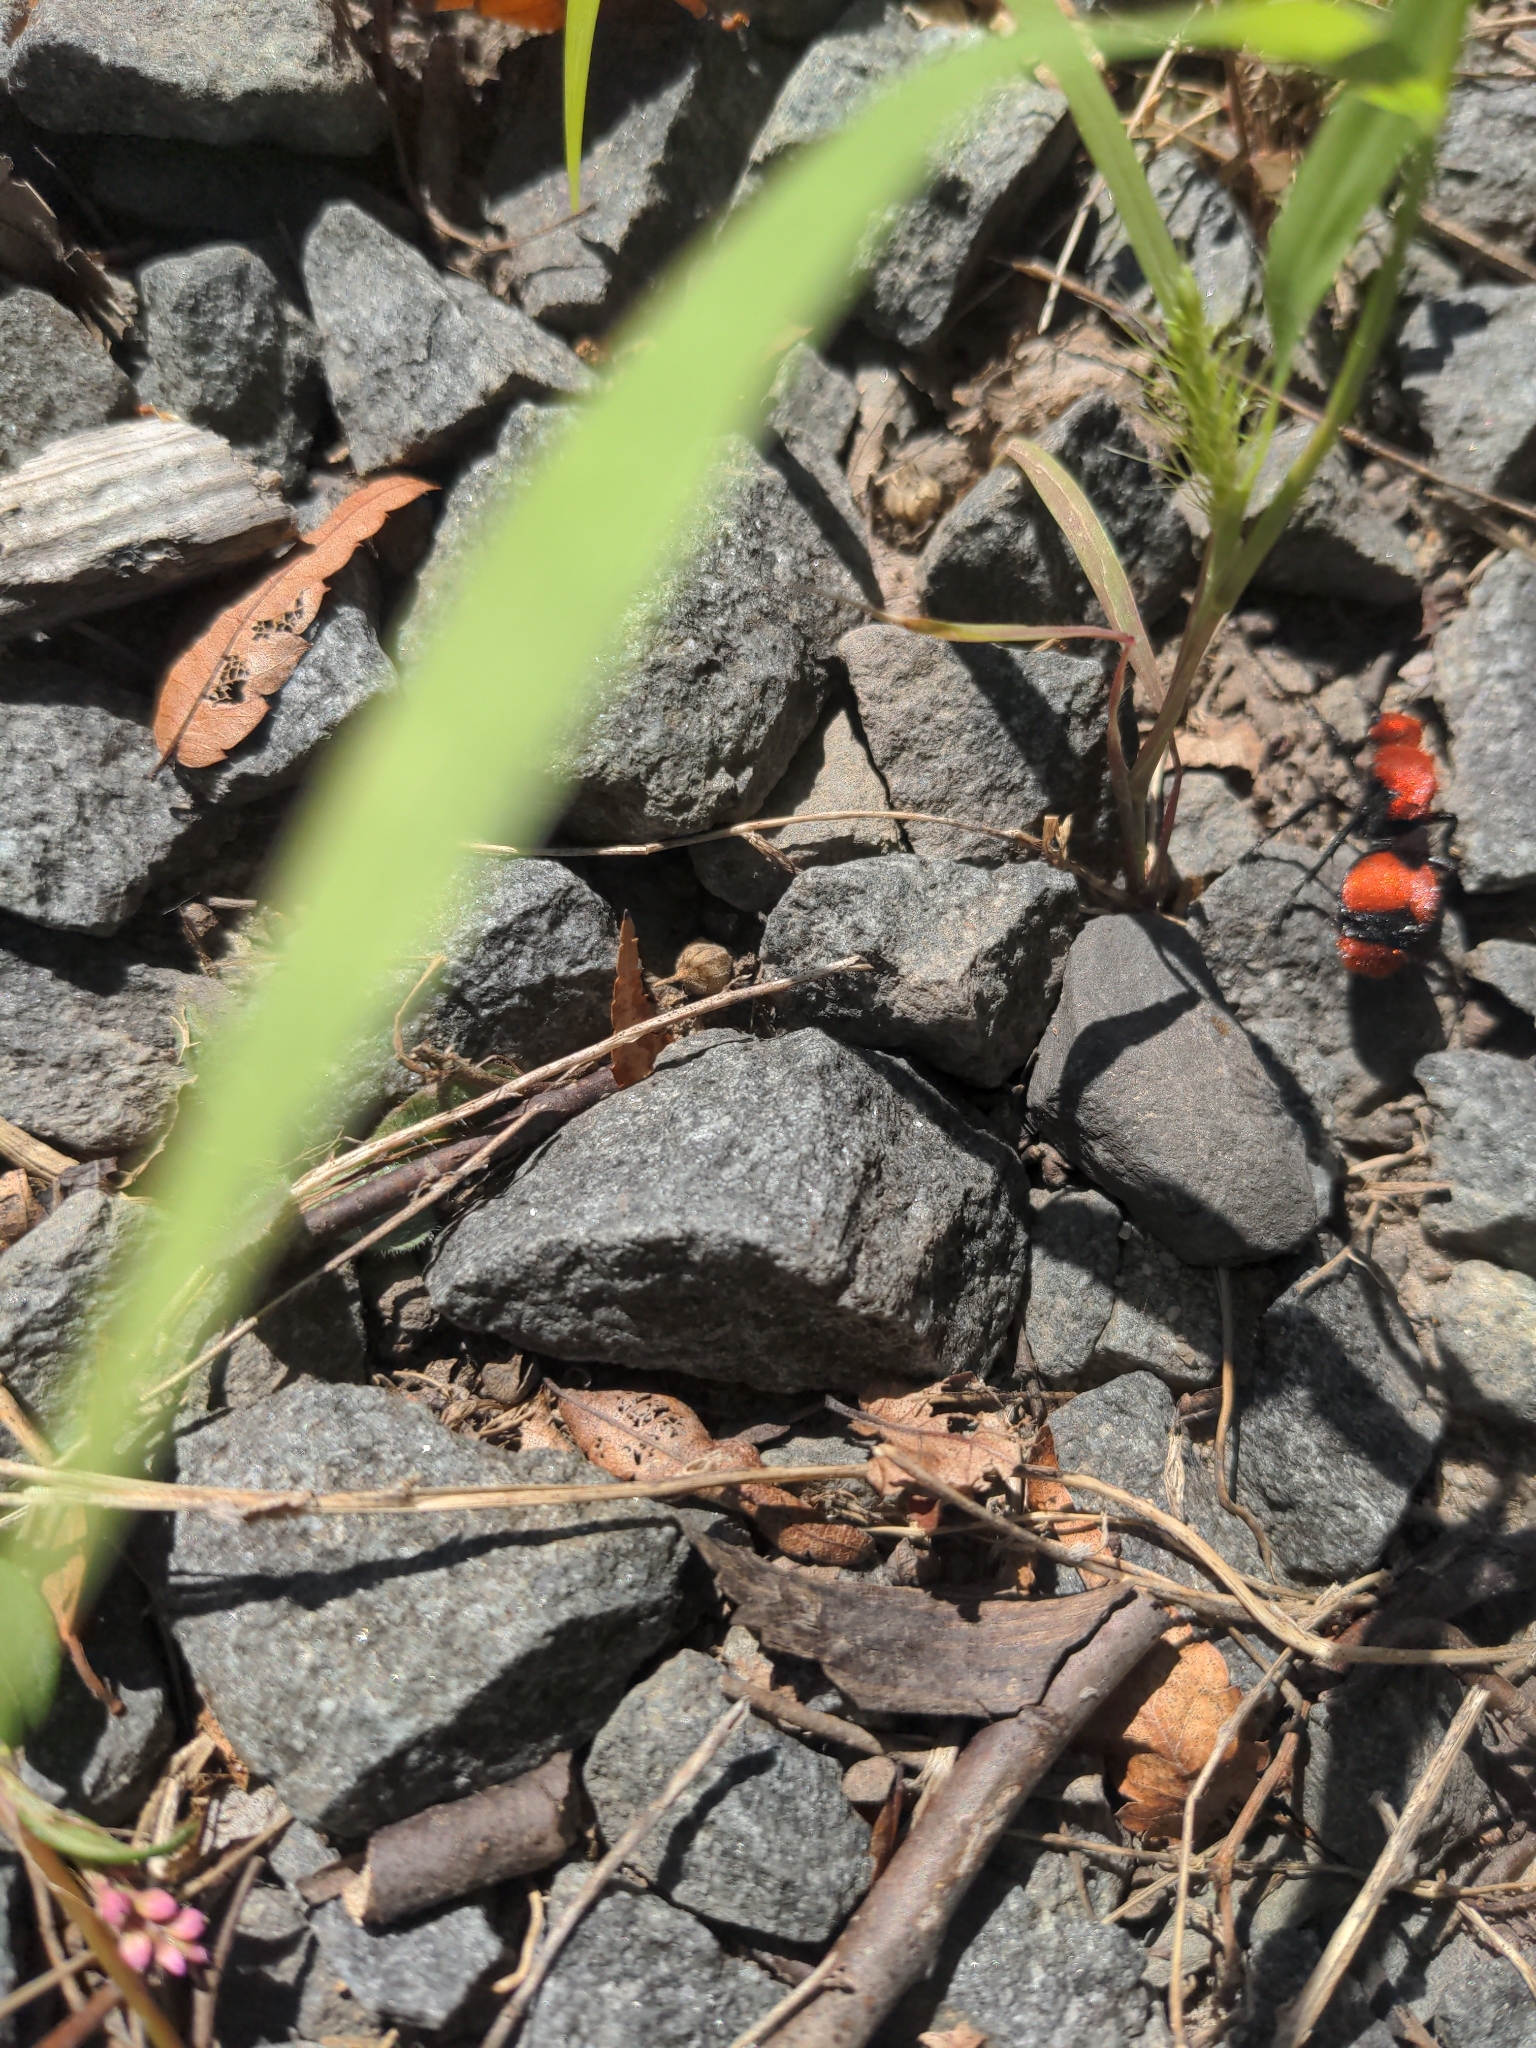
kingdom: Animalia
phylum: Arthropoda
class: Insecta
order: Hymenoptera
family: Mutillidae
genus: Dasymutilla
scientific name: Dasymutilla occidentalis
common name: Common eastern velvet ant
